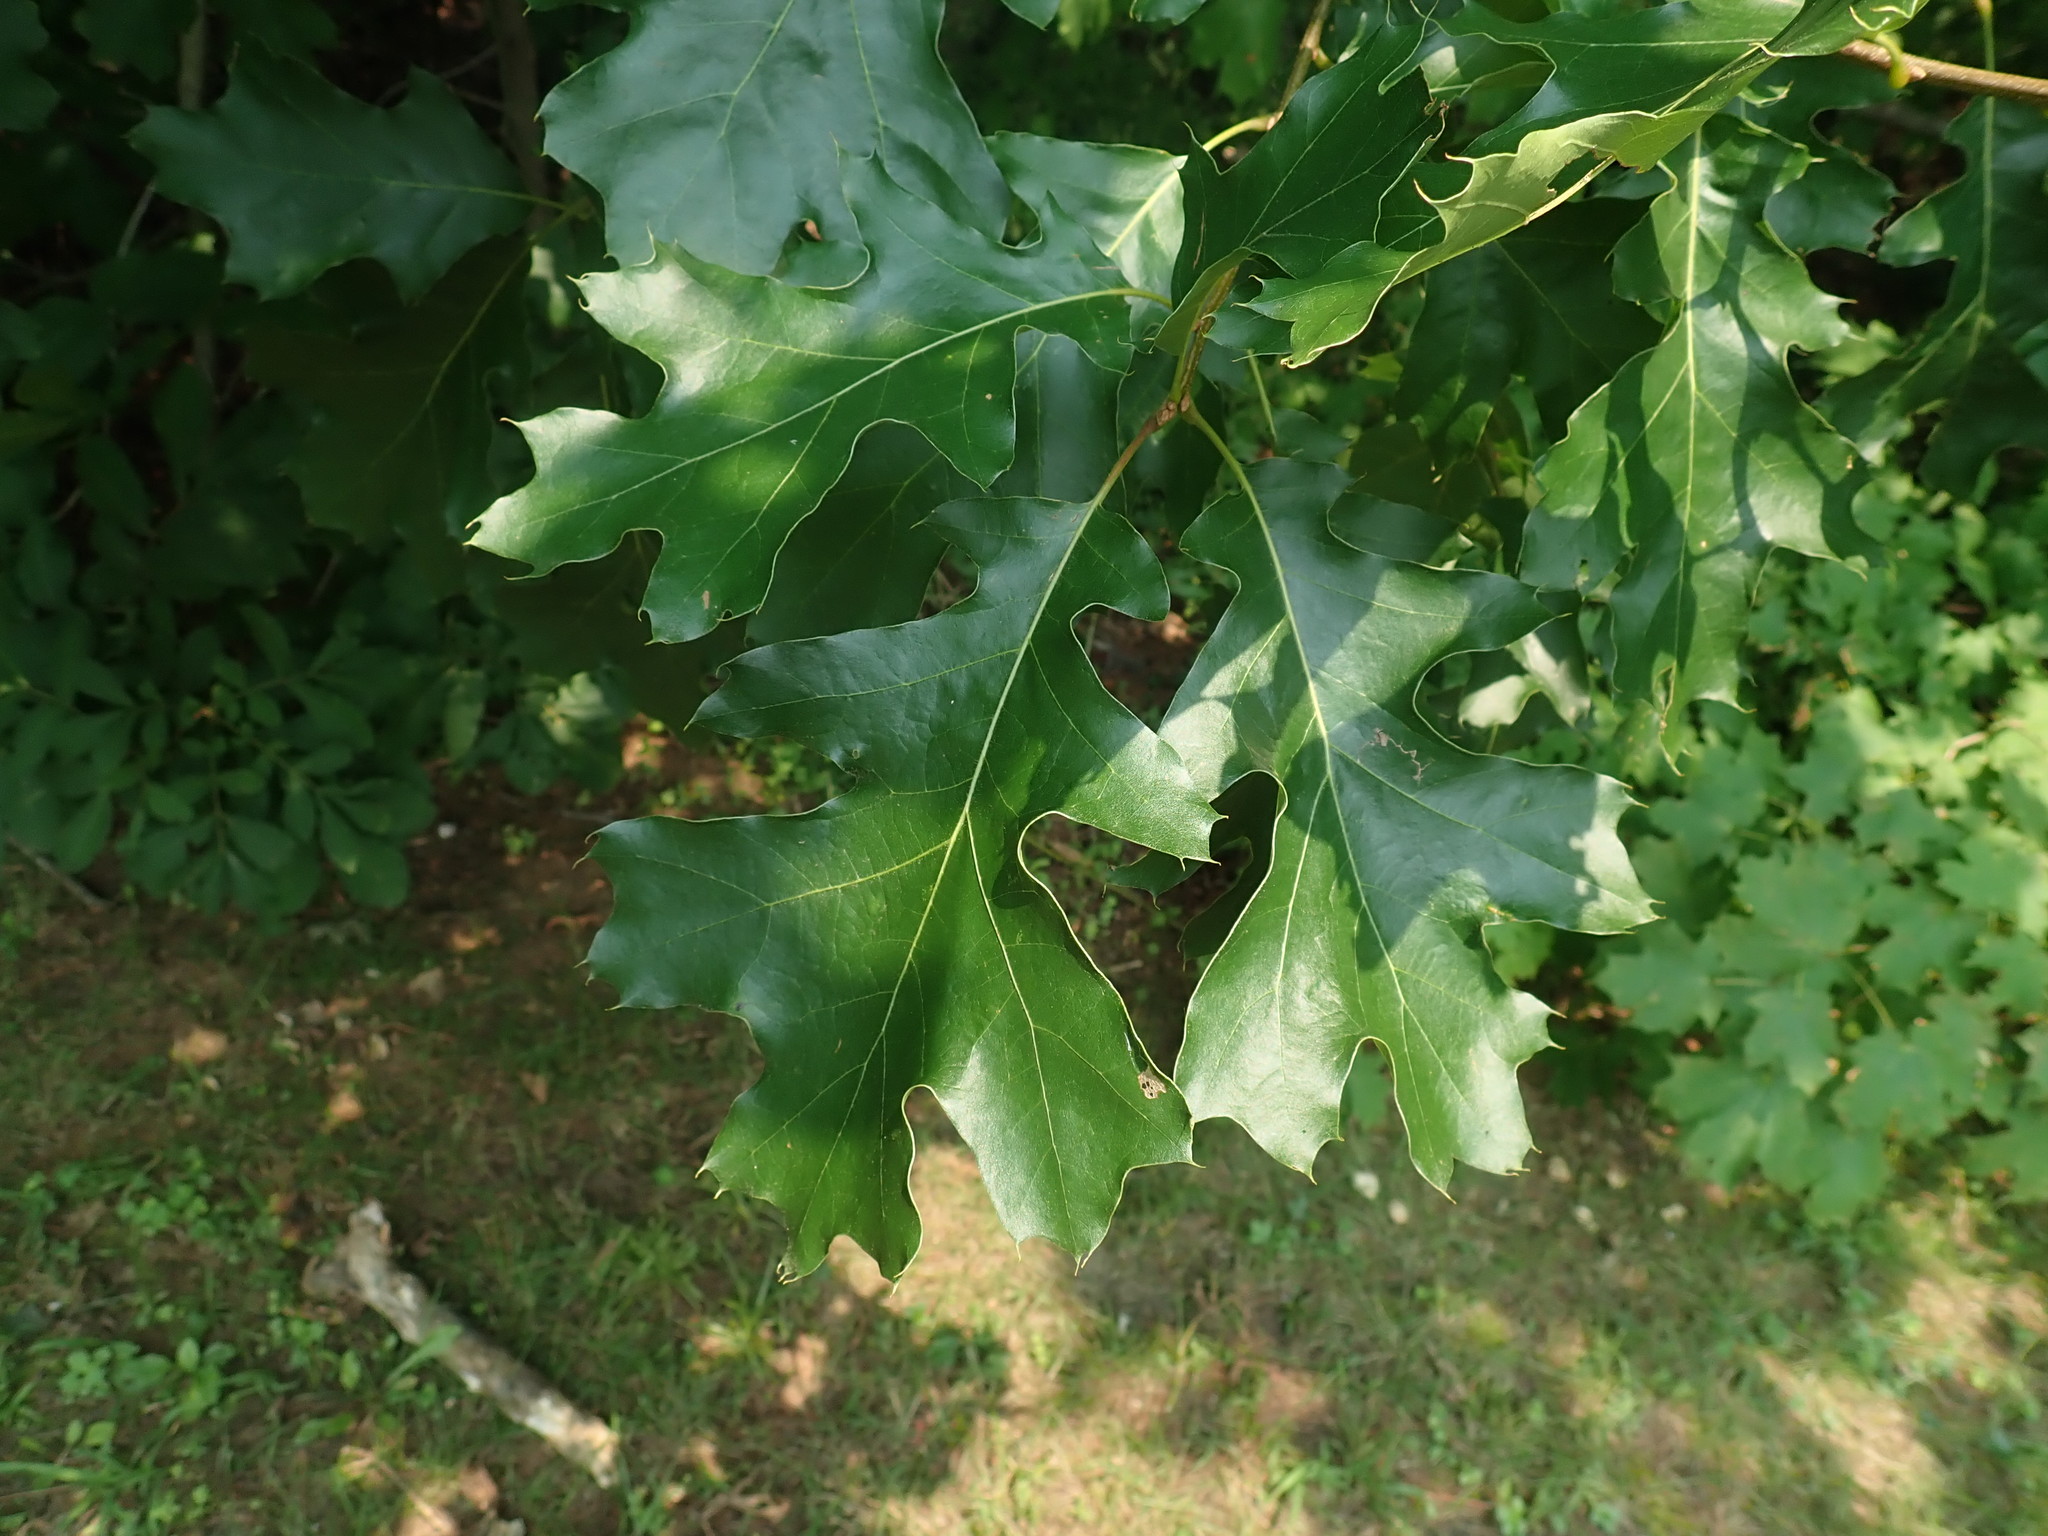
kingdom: Plantae
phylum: Tracheophyta
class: Magnoliopsida
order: Fagales
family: Fagaceae
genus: Quercus
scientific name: Quercus velutina
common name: Black oak
